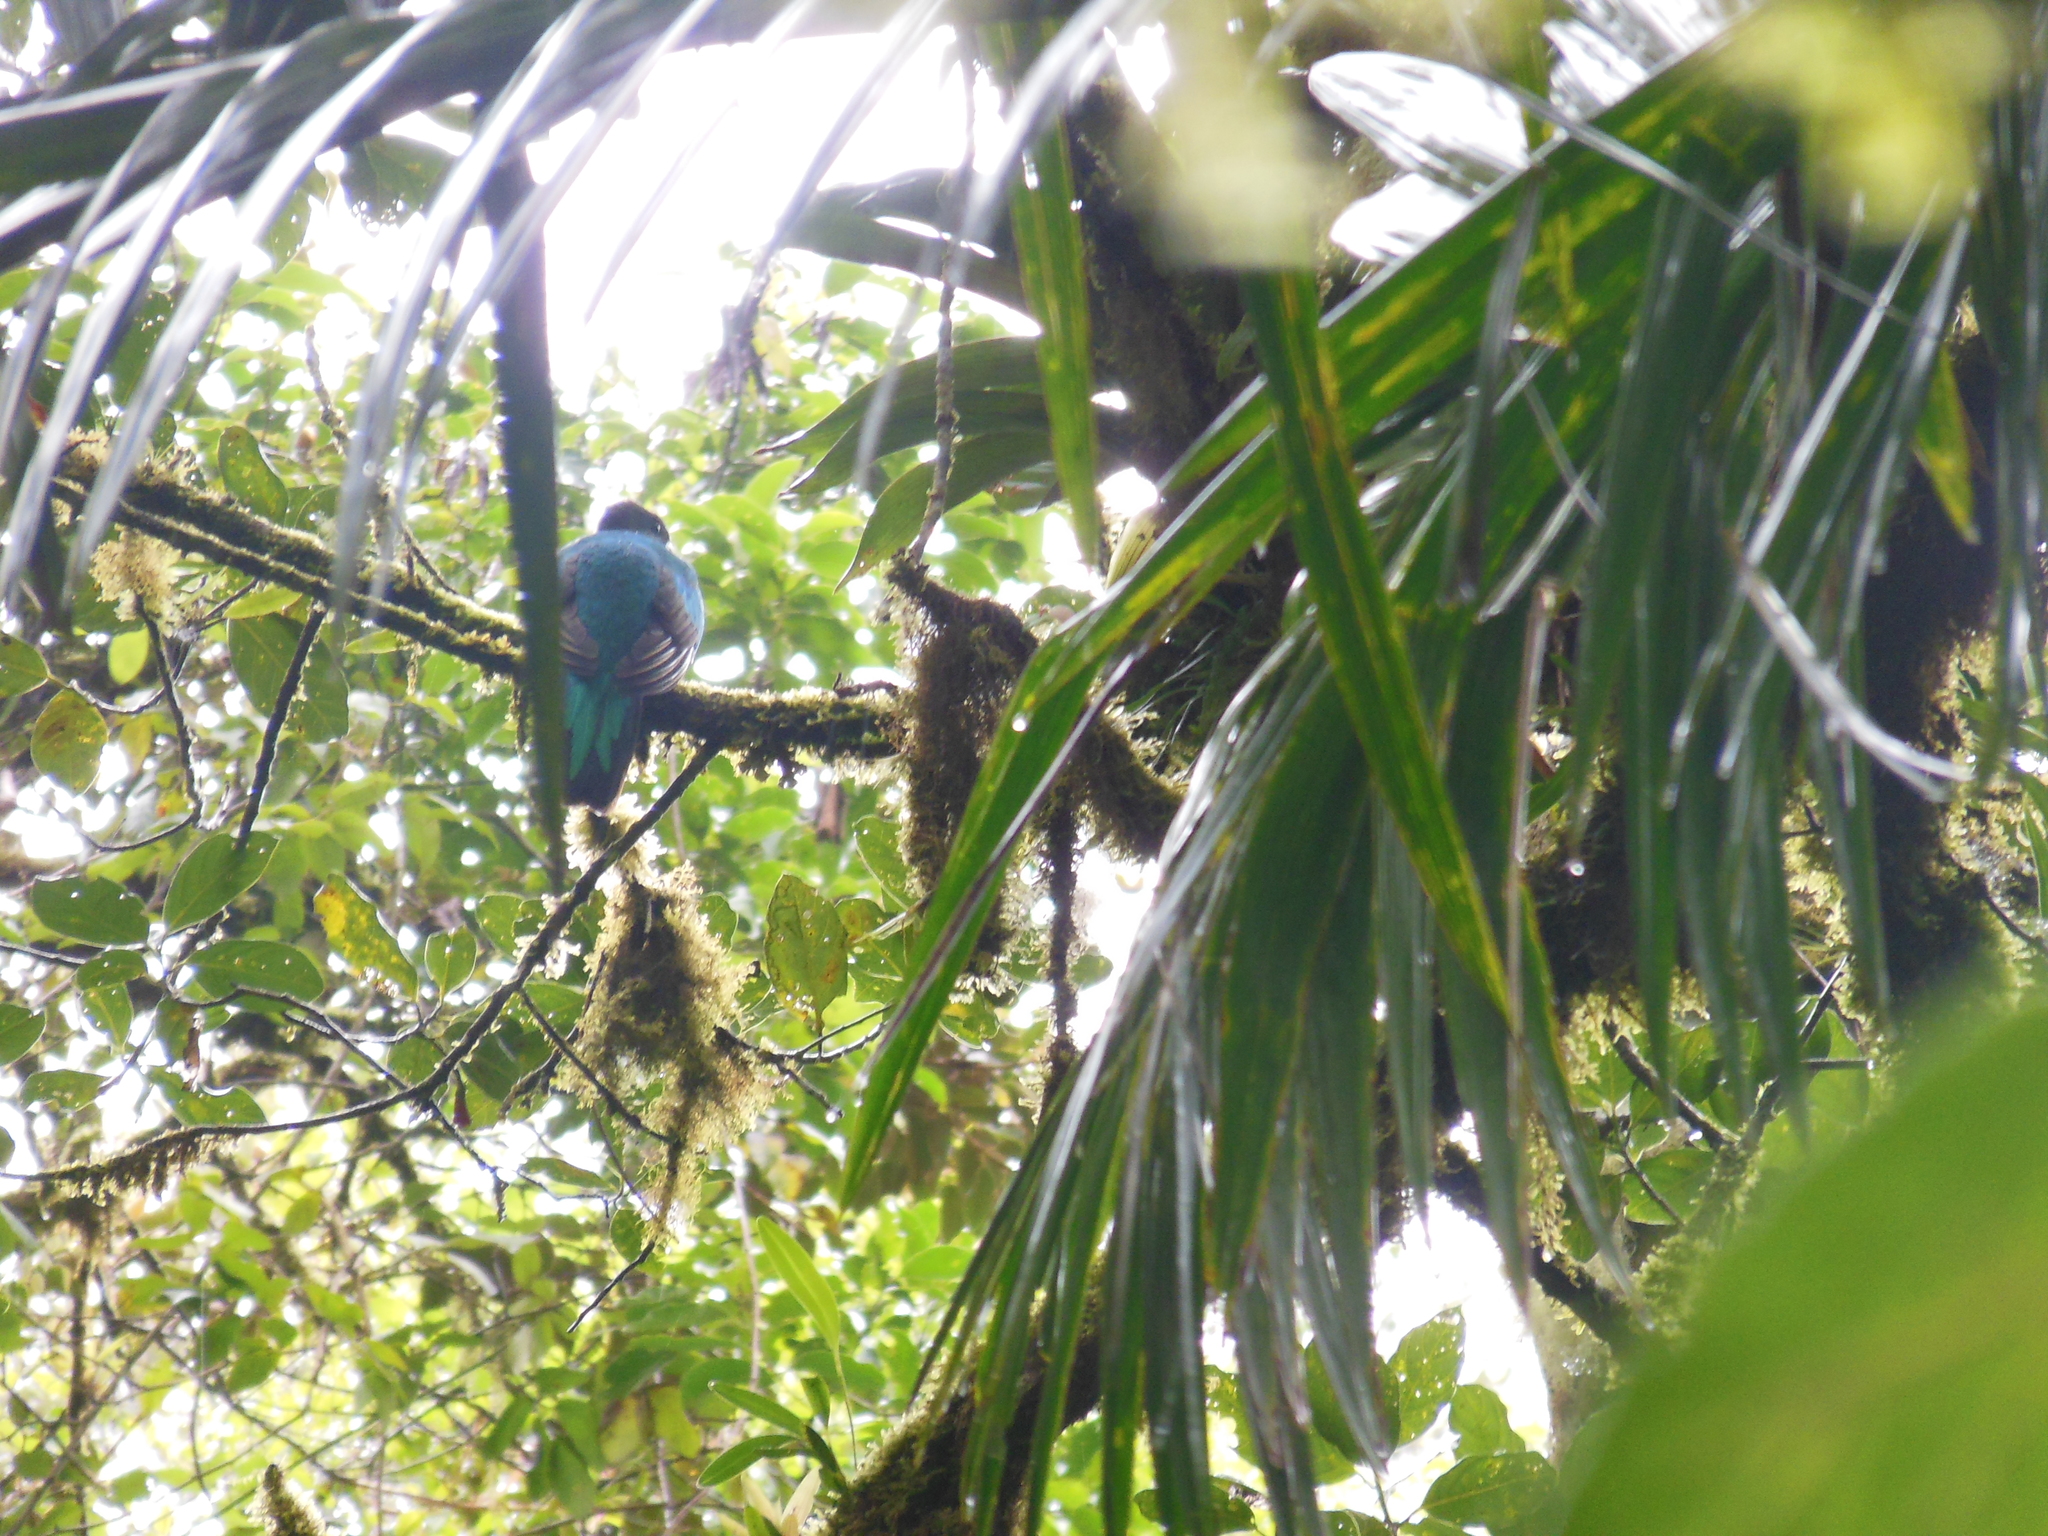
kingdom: Animalia
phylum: Chordata
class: Aves
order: Trogoniformes
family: Trogonidae
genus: Pharomachrus
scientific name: Pharomachrus mocinno
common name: Resplendent quetzal
